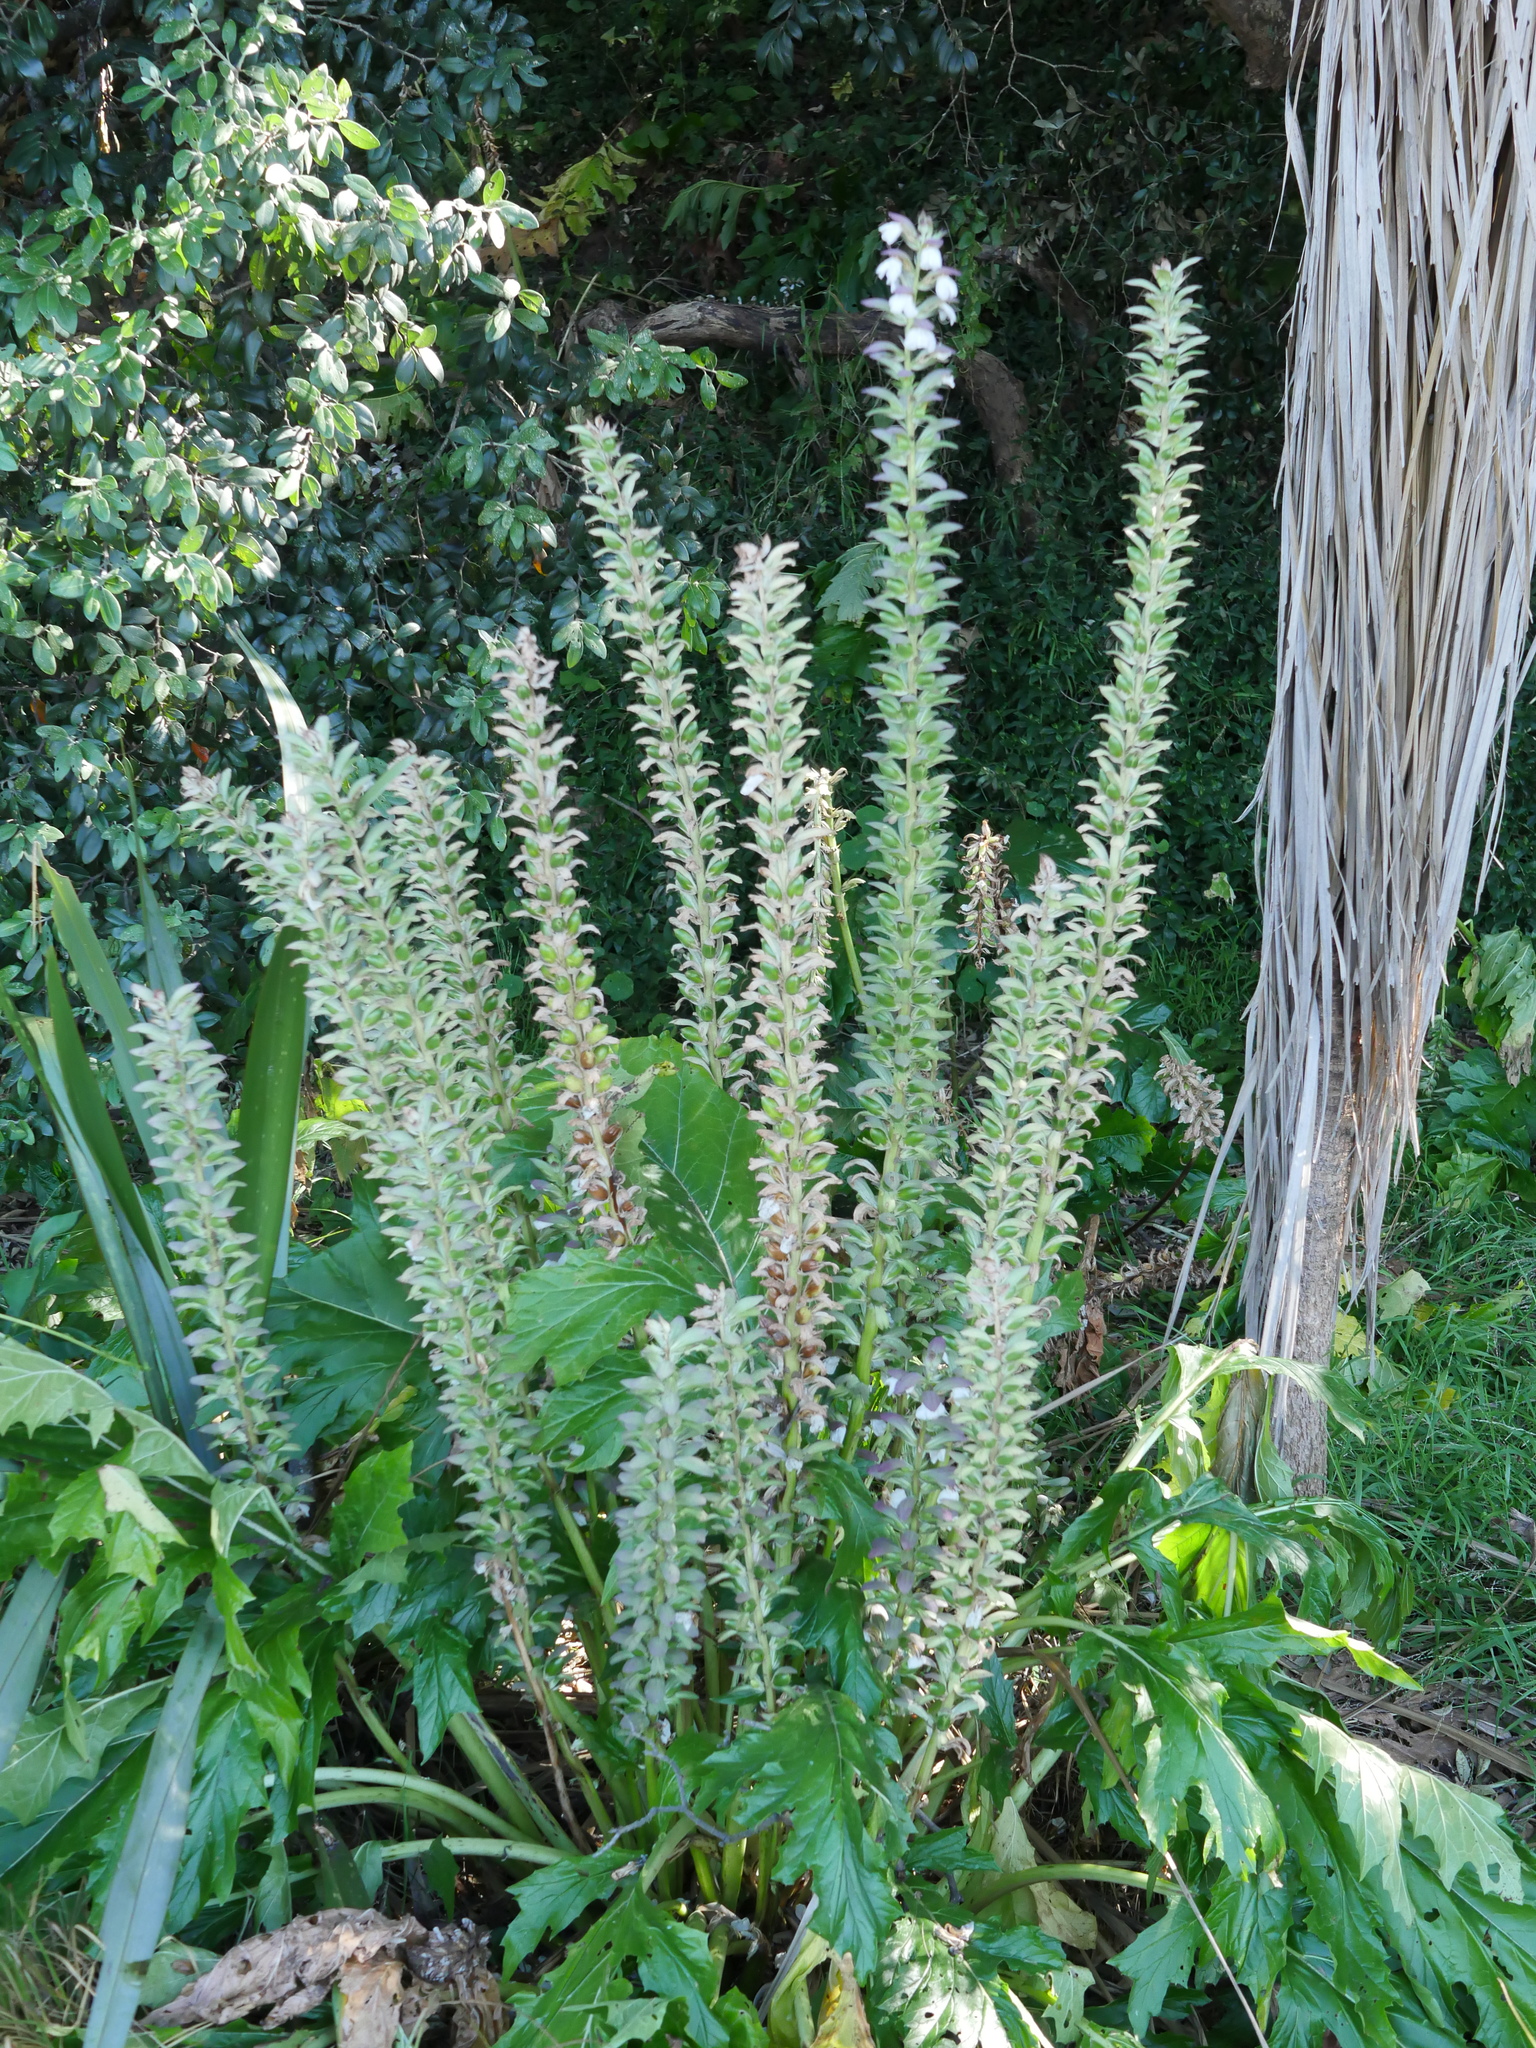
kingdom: Plantae
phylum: Tracheophyta
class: Magnoliopsida
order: Lamiales
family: Acanthaceae
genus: Acanthus
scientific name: Acanthus mollis
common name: Bear's-breech
